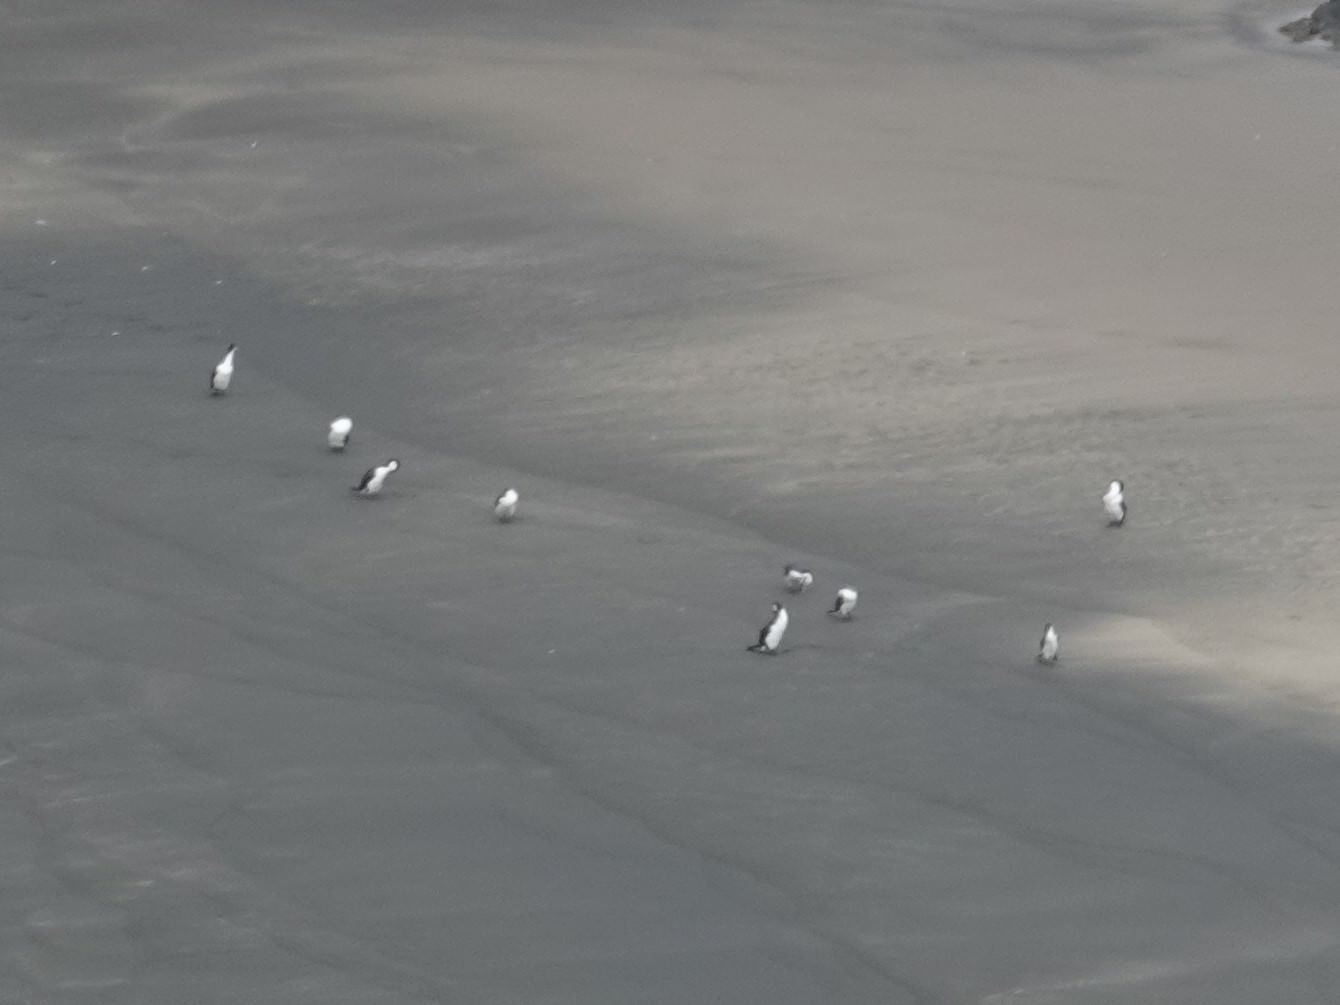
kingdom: Animalia
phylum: Chordata
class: Aves
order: Suliformes
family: Phalacrocoracidae
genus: Phalacrocorax
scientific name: Phalacrocorax varius
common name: Pied cormorant
